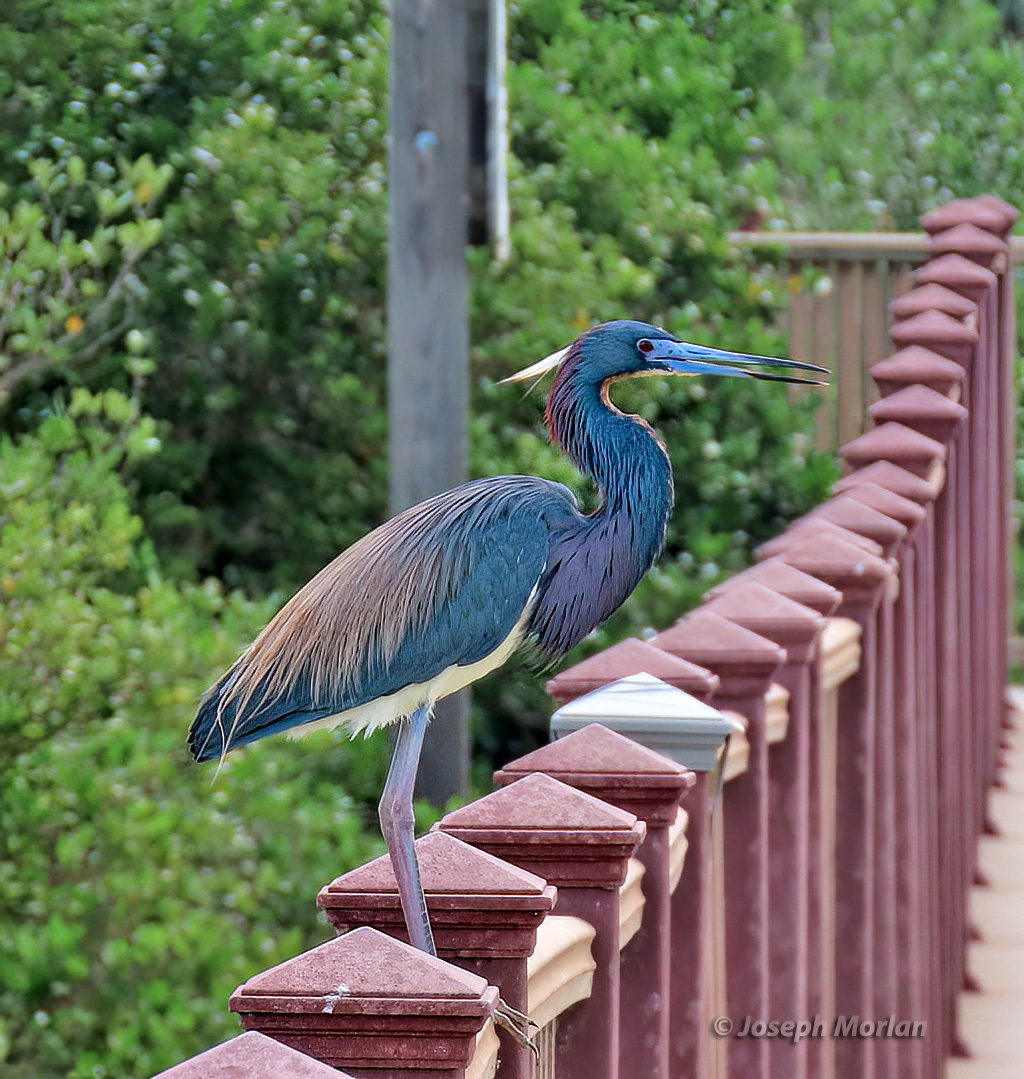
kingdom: Animalia
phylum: Chordata
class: Aves
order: Pelecaniformes
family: Ardeidae
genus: Egretta
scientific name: Egretta tricolor
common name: Tricolored heron
